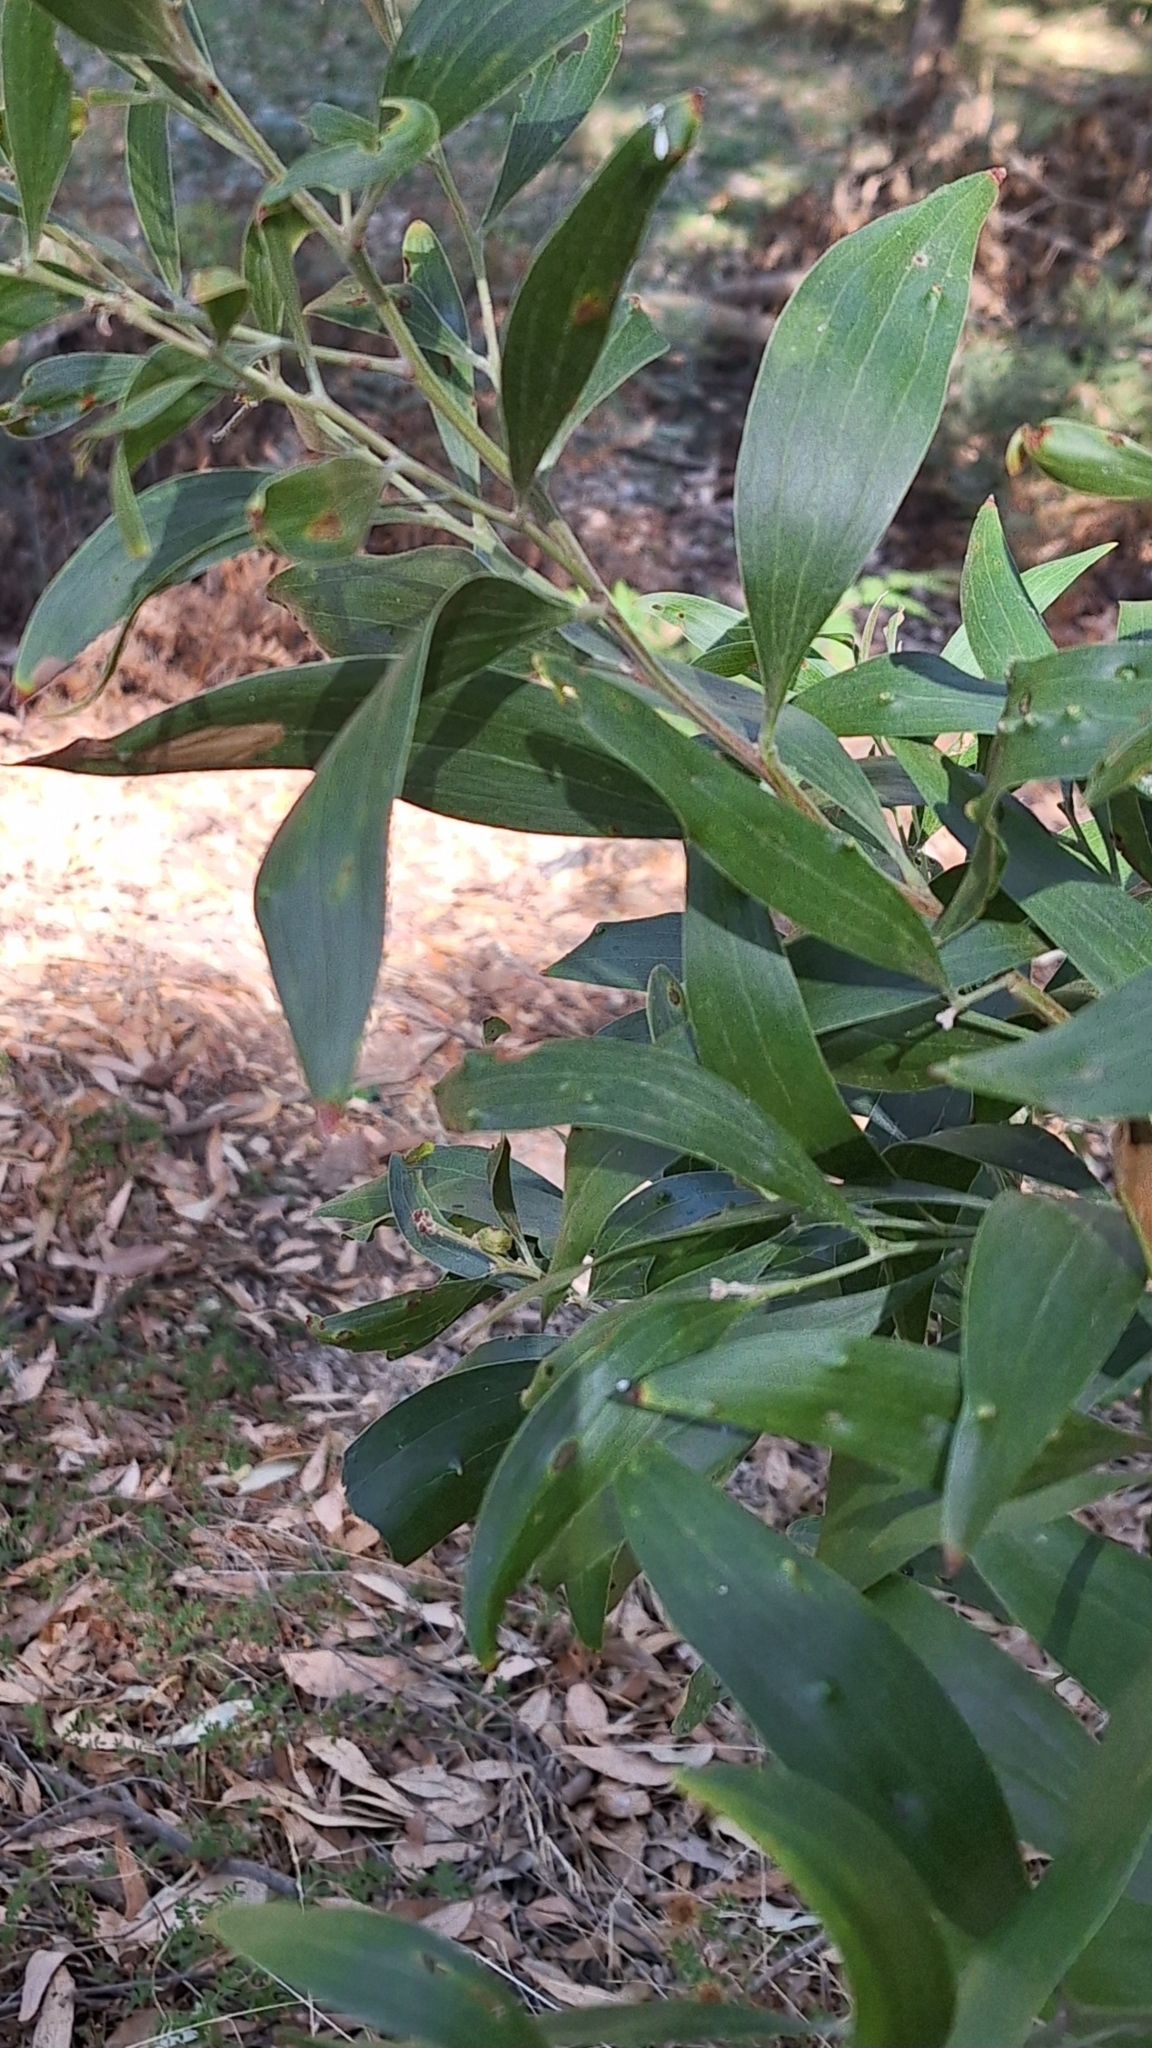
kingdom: Plantae
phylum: Tracheophyta
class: Magnoliopsida
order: Fabales
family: Fabaceae
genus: Acacia
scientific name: Acacia melanoxylon
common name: Blackwood
